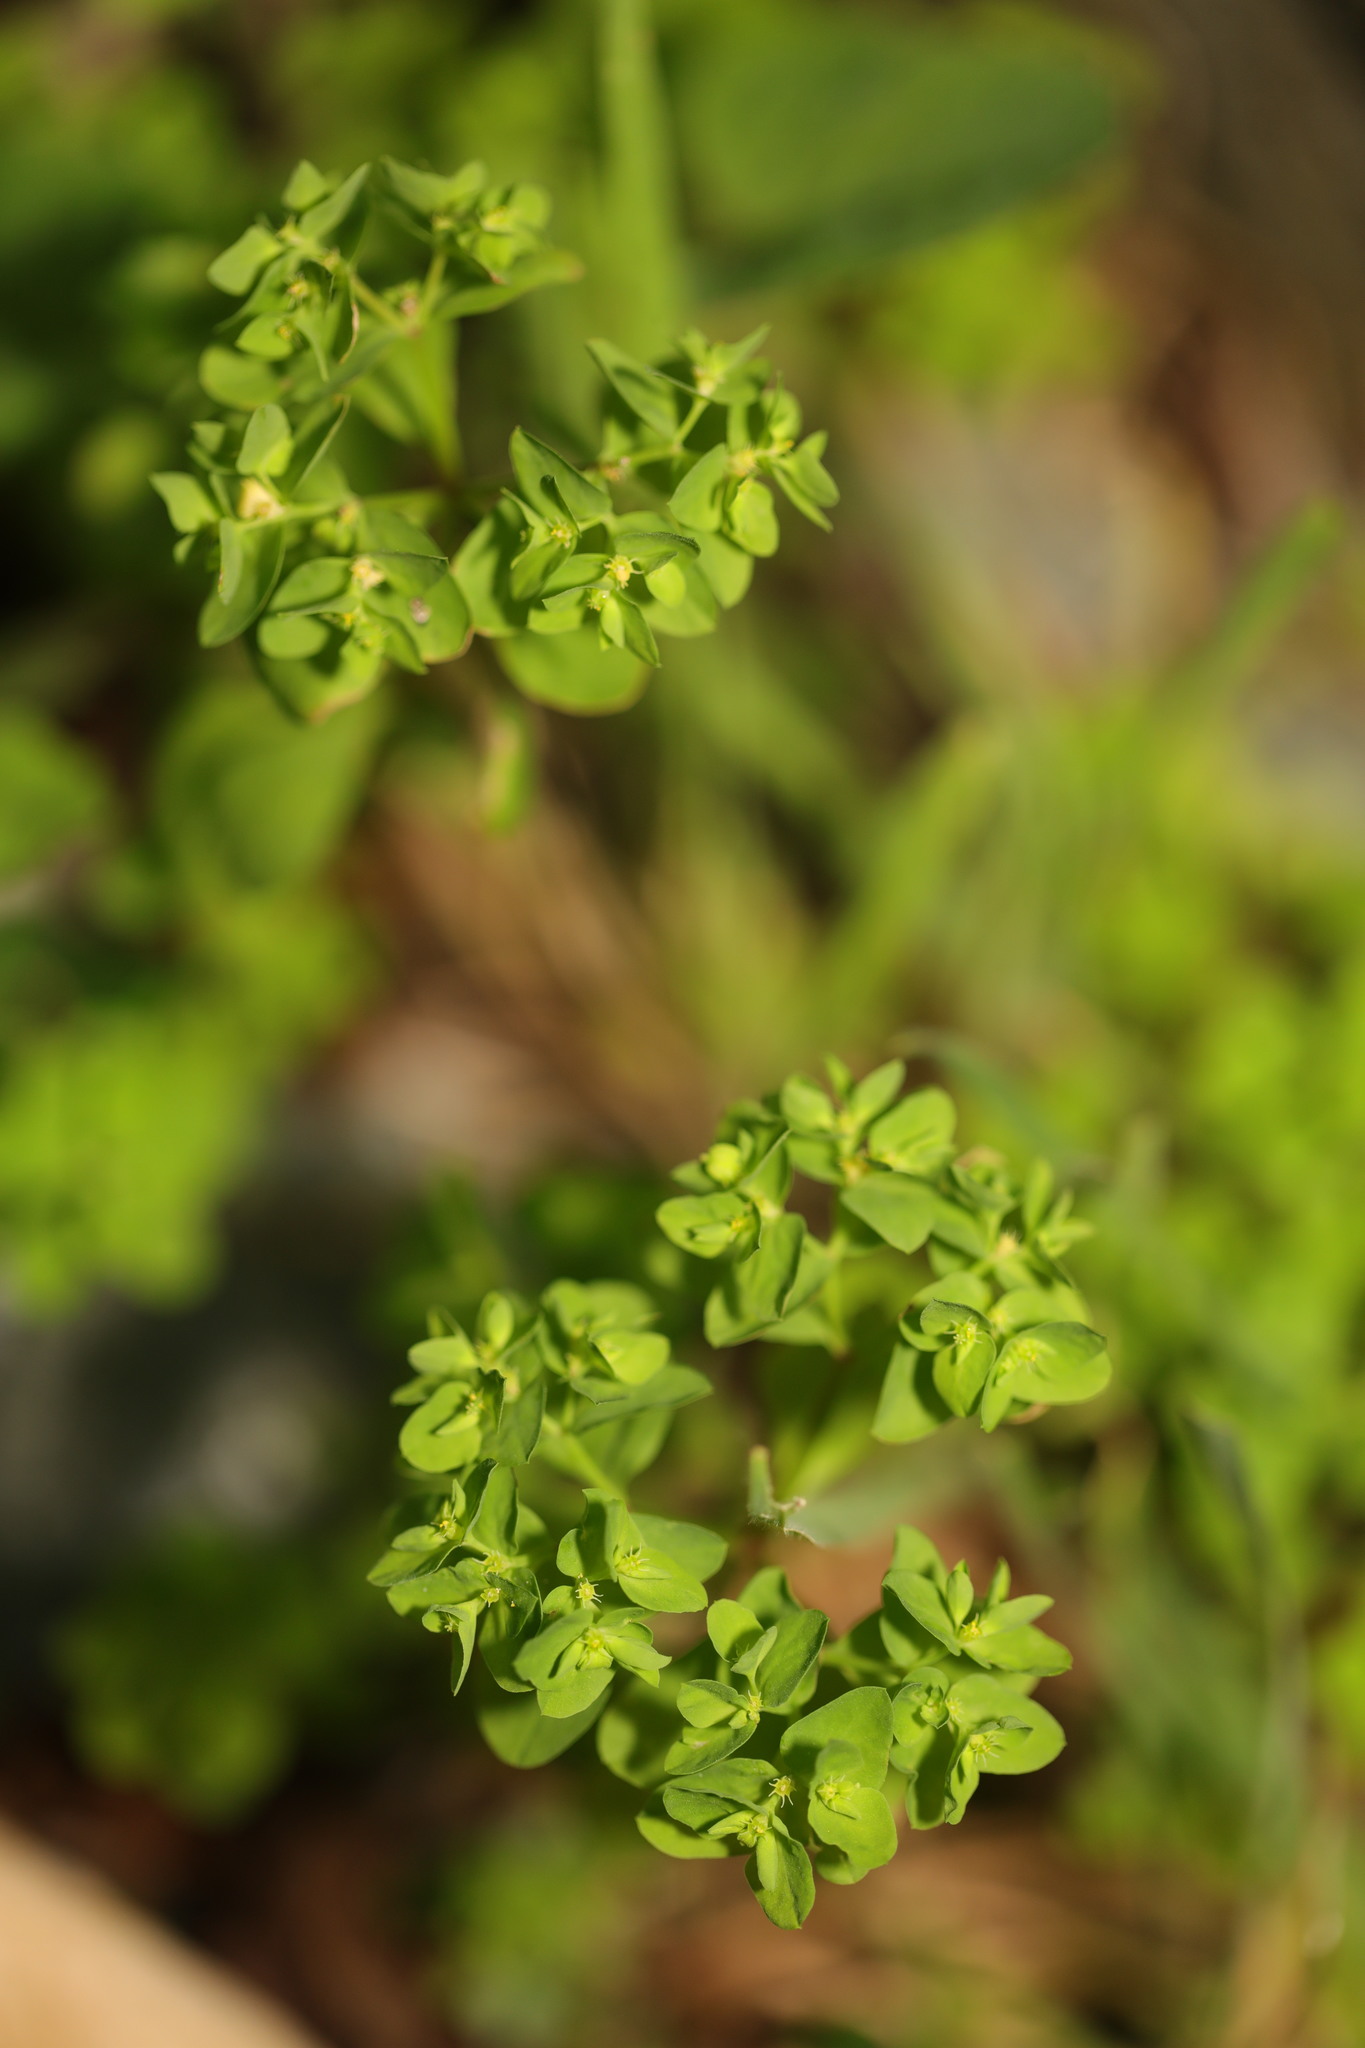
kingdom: Plantae
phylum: Tracheophyta
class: Magnoliopsida
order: Malpighiales
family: Euphorbiaceae
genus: Euphorbia
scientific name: Euphorbia peplus
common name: Petty spurge
